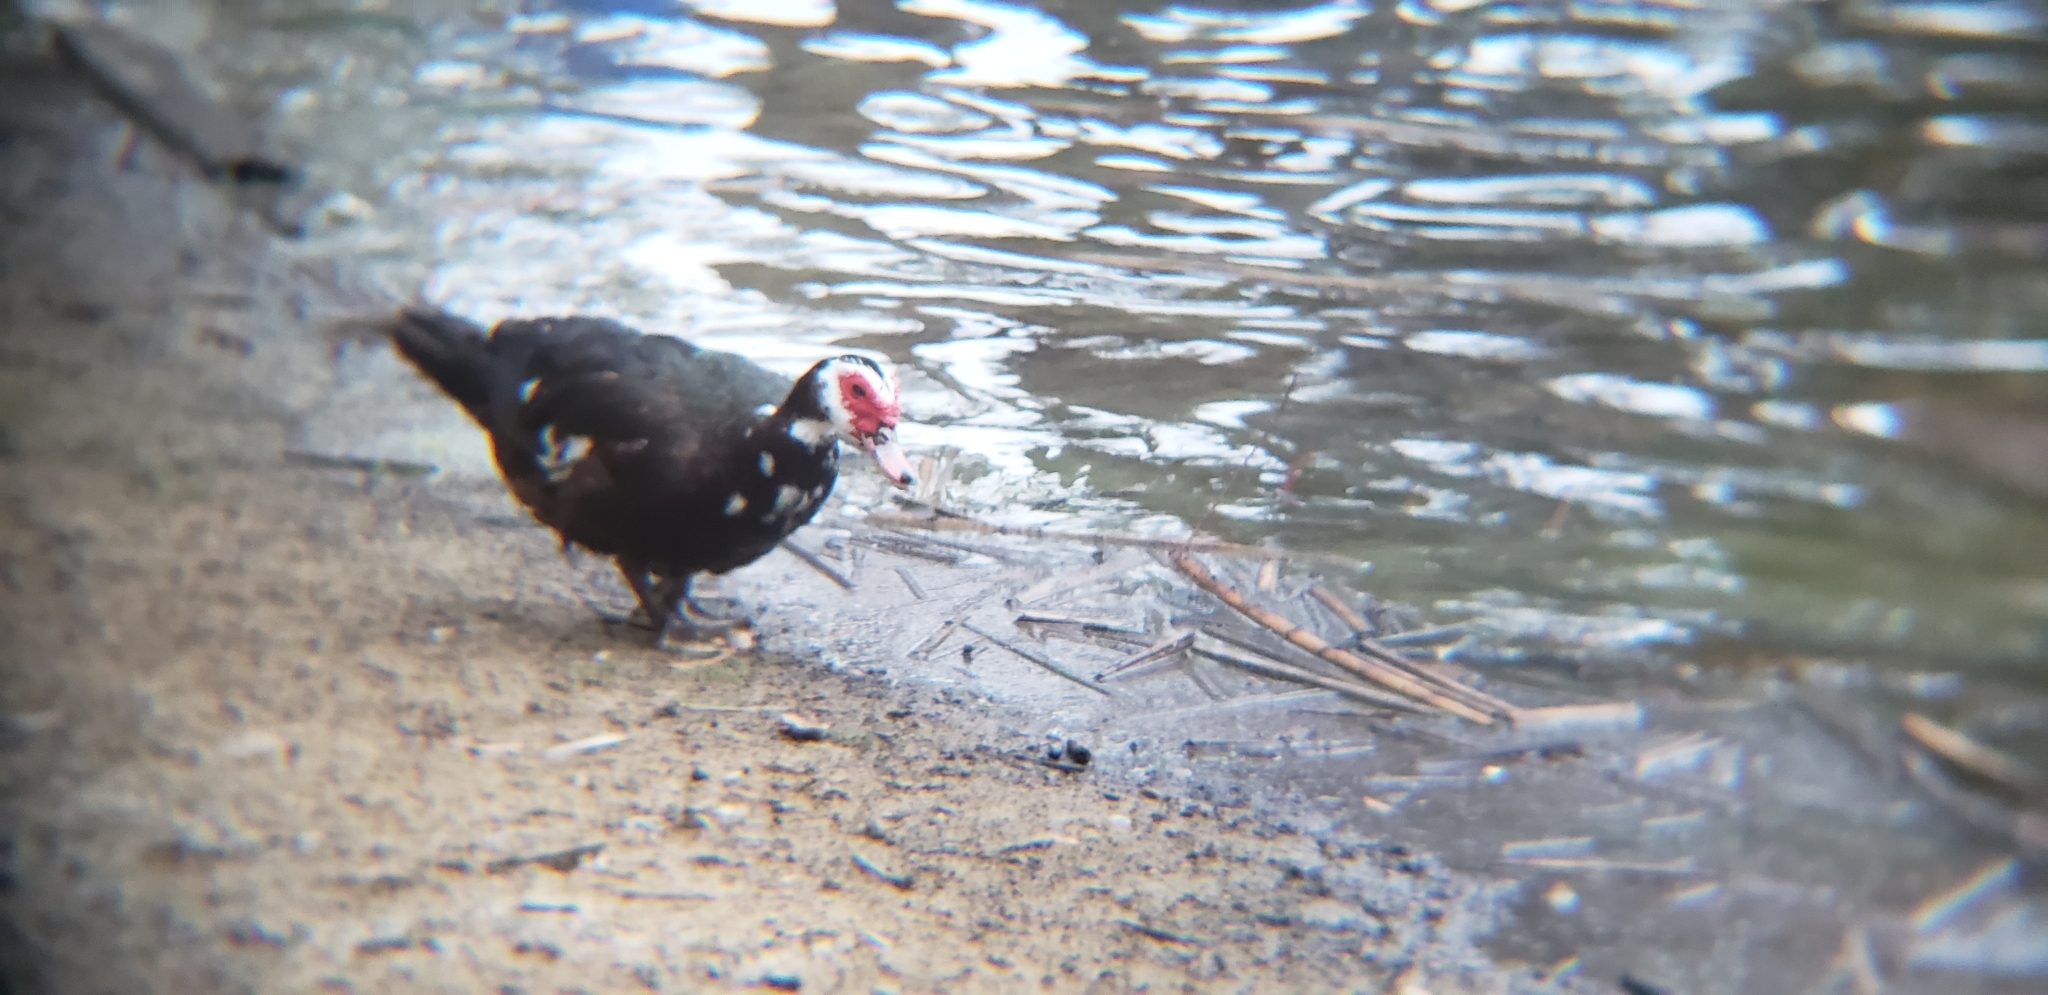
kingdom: Animalia
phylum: Chordata
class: Aves
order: Anseriformes
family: Anatidae
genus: Cairina
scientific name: Cairina moschata
